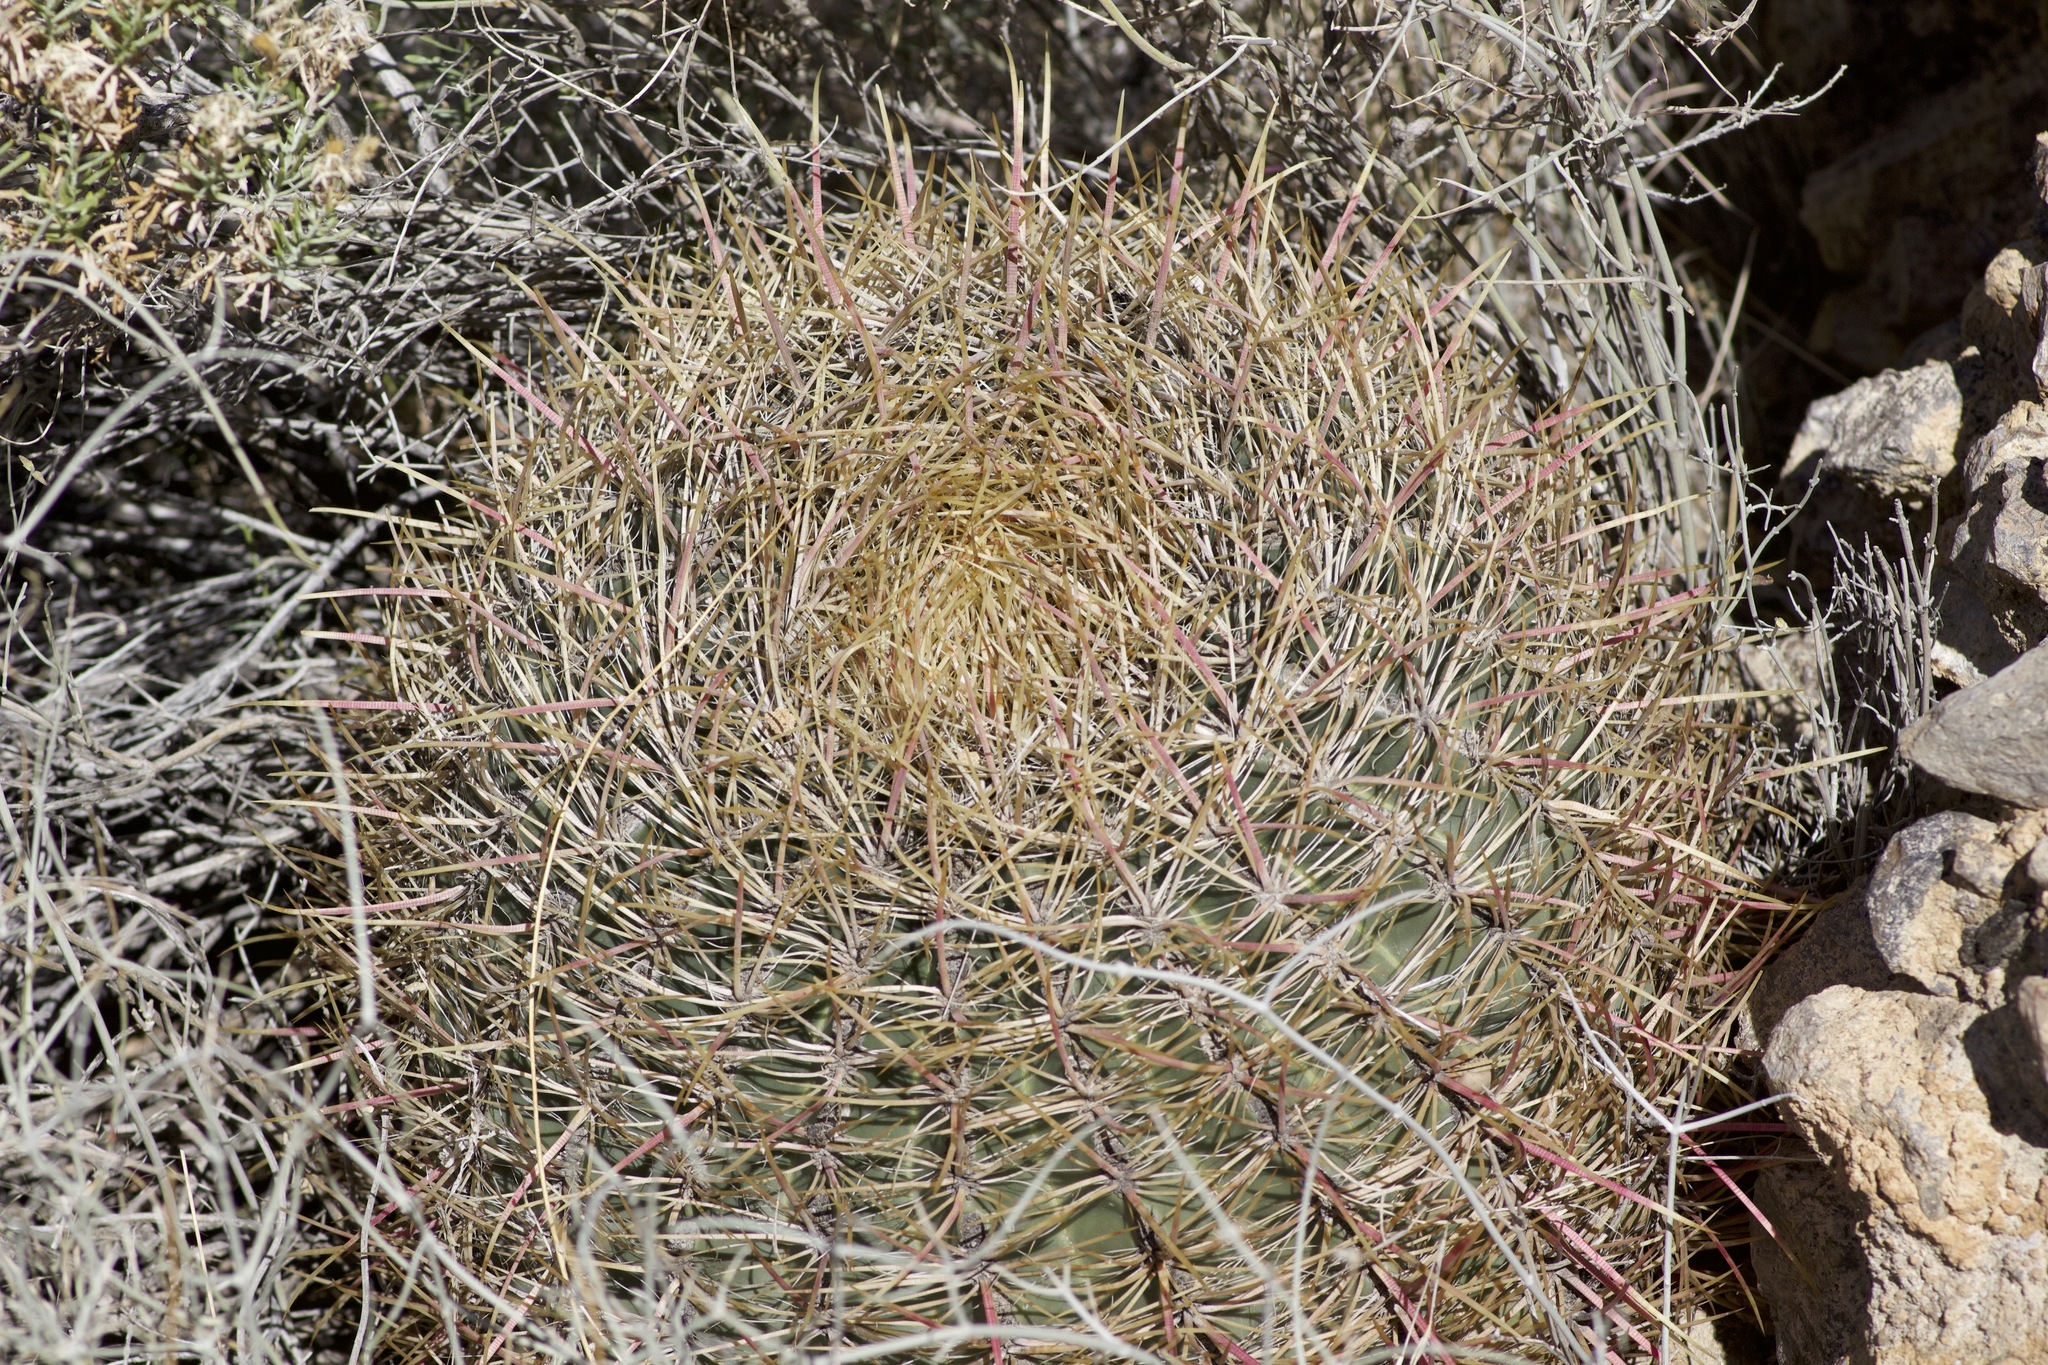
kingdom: Plantae
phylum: Tracheophyta
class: Magnoliopsida
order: Caryophyllales
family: Cactaceae
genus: Ferocactus
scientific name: Ferocactus cylindraceus
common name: California barrel cactus
